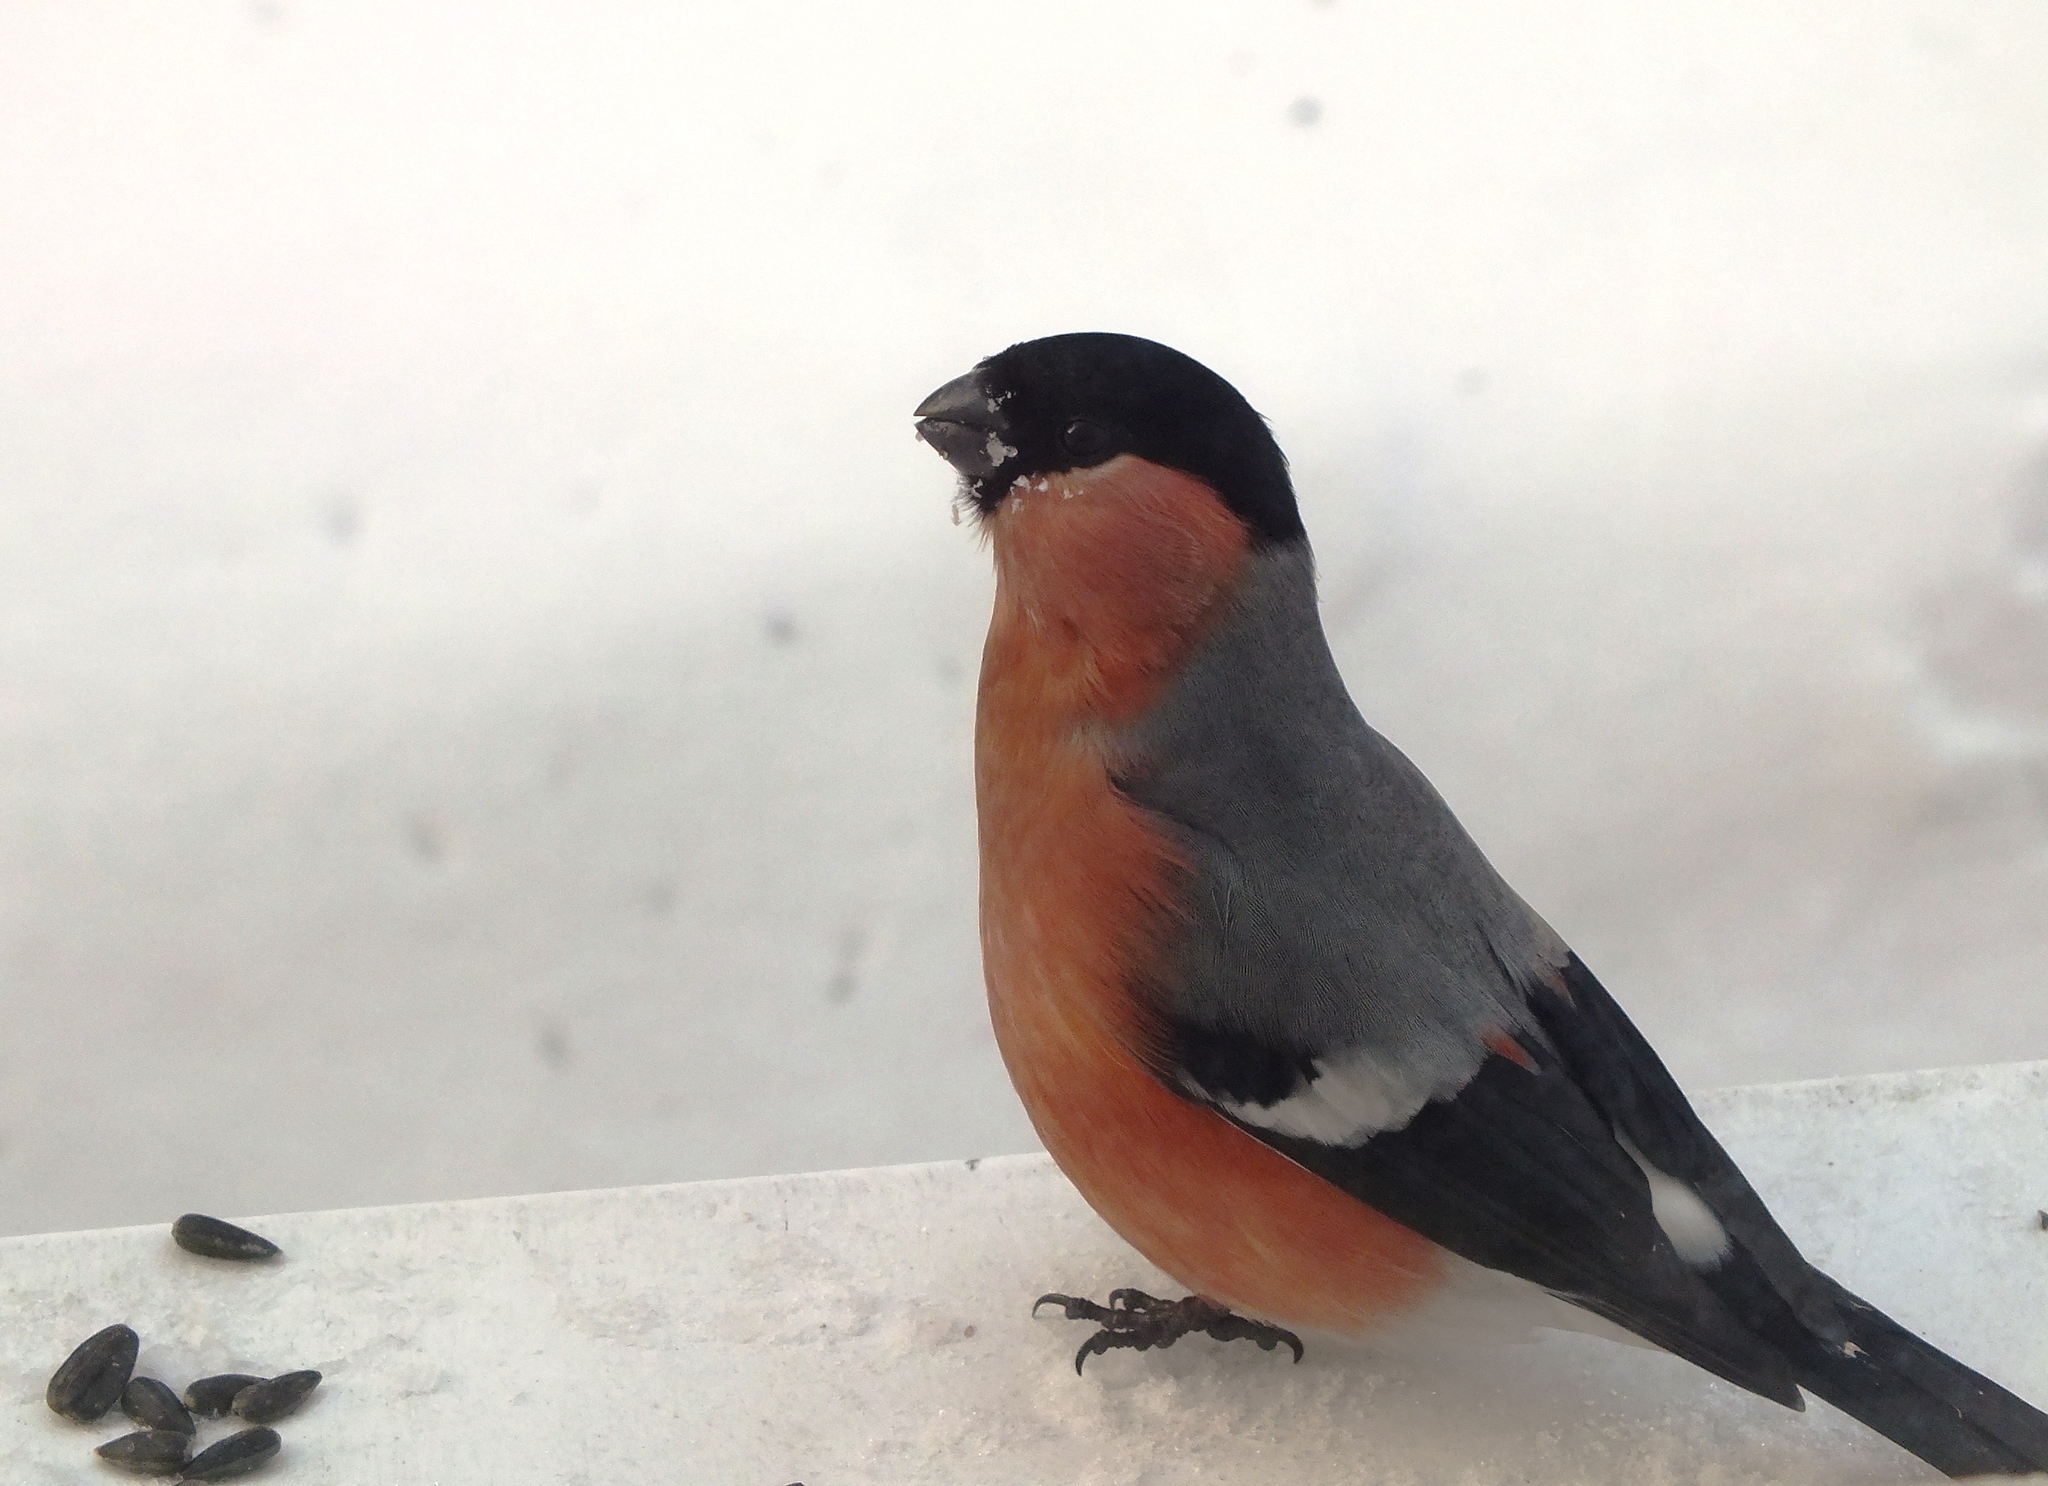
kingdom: Animalia
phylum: Chordata
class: Aves
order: Passeriformes
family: Fringillidae
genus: Pyrrhula
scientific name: Pyrrhula pyrrhula
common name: Eurasian bullfinch
